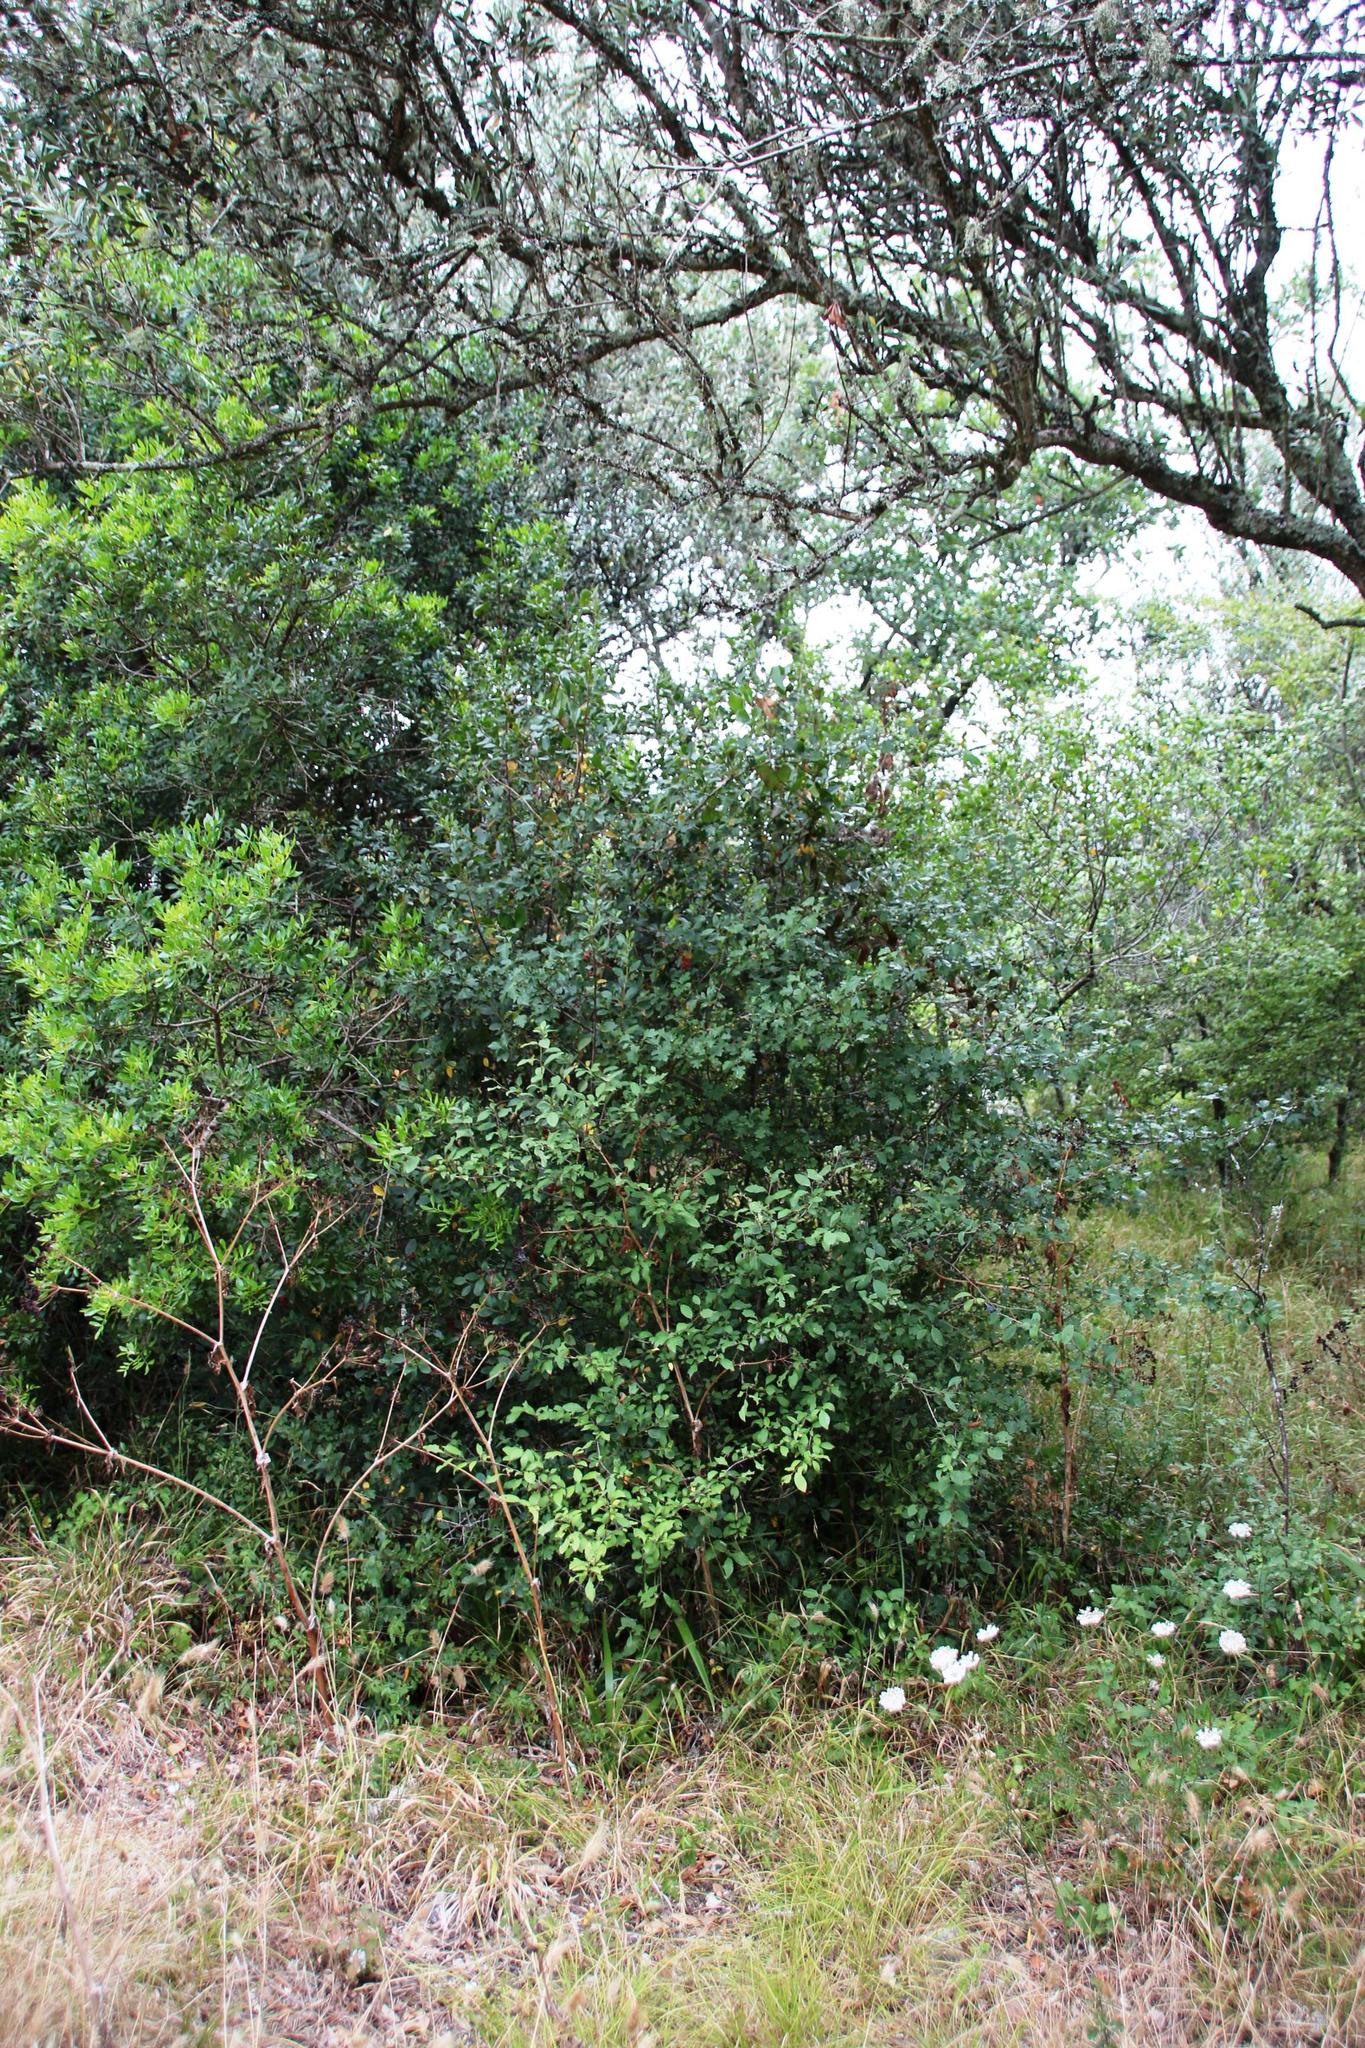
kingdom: Plantae
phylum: Tracheophyta
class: Magnoliopsida
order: Rosales
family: Rhamnaceae
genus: Rhamnus
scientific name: Rhamnus alaternus
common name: Mediterranean buckthorn
